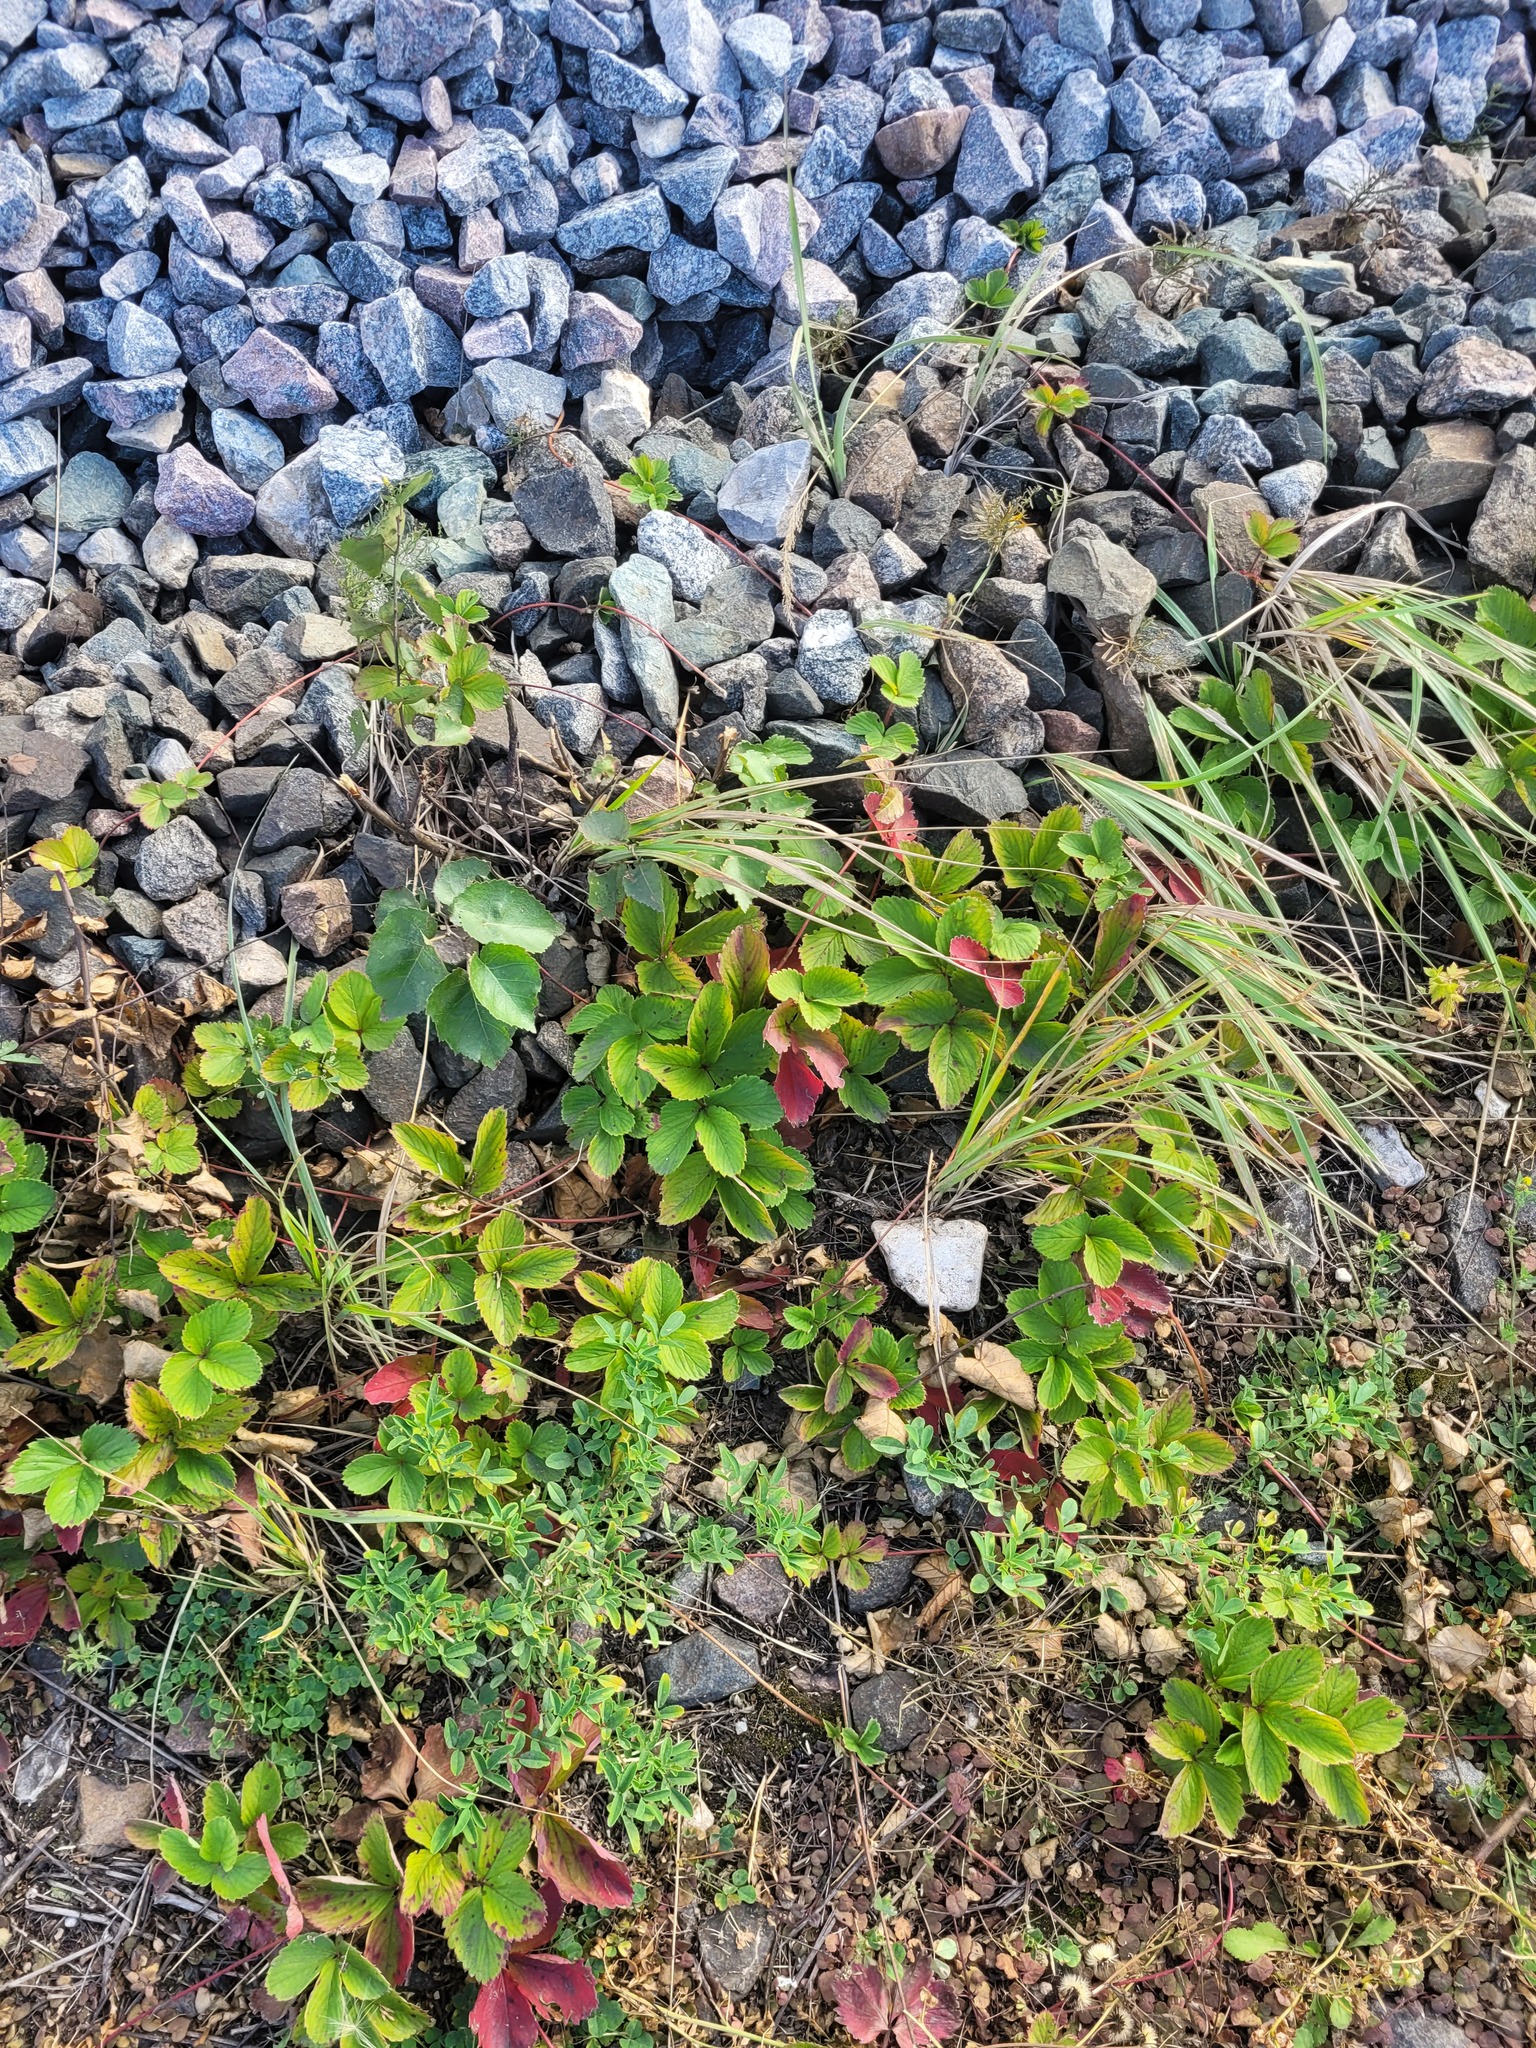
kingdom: Plantae
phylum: Tracheophyta
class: Magnoliopsida
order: Rosales
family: Rosaceae
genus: Fragaria
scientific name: Fragaria ananassa
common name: Garden strawberry
